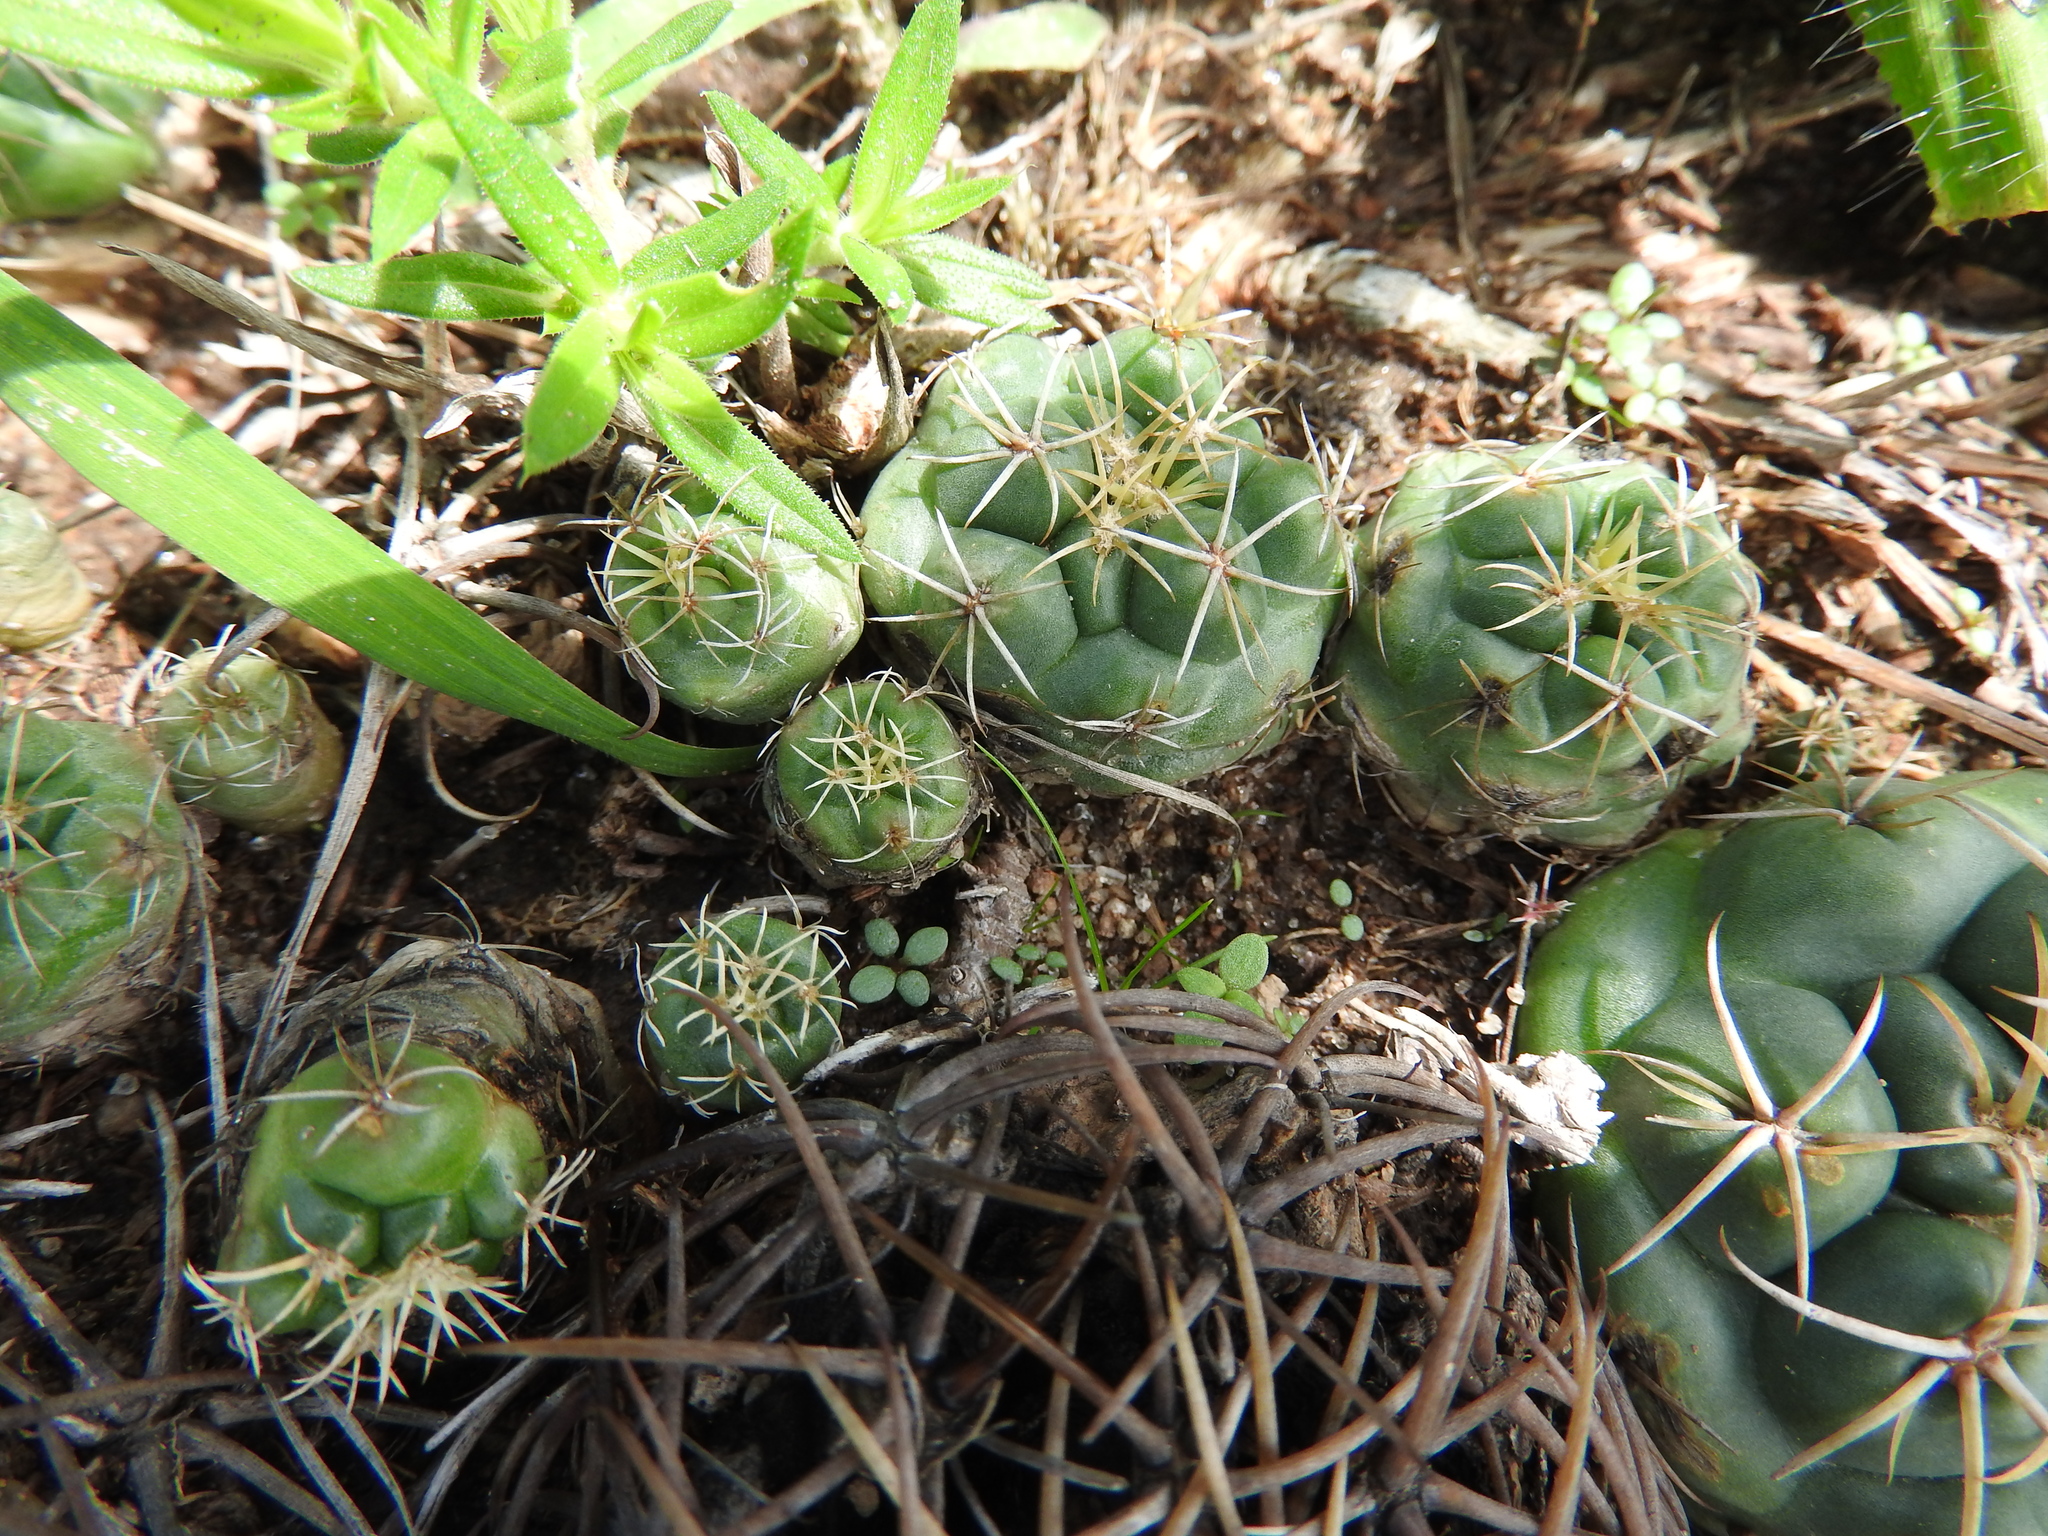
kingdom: Plantae
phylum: Tracheophyta
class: Magnoliopsida
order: Caryophyllales
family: Cactaceae
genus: Coryphantha
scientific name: Coryphantha elephantidens
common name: Elephant's tooth
